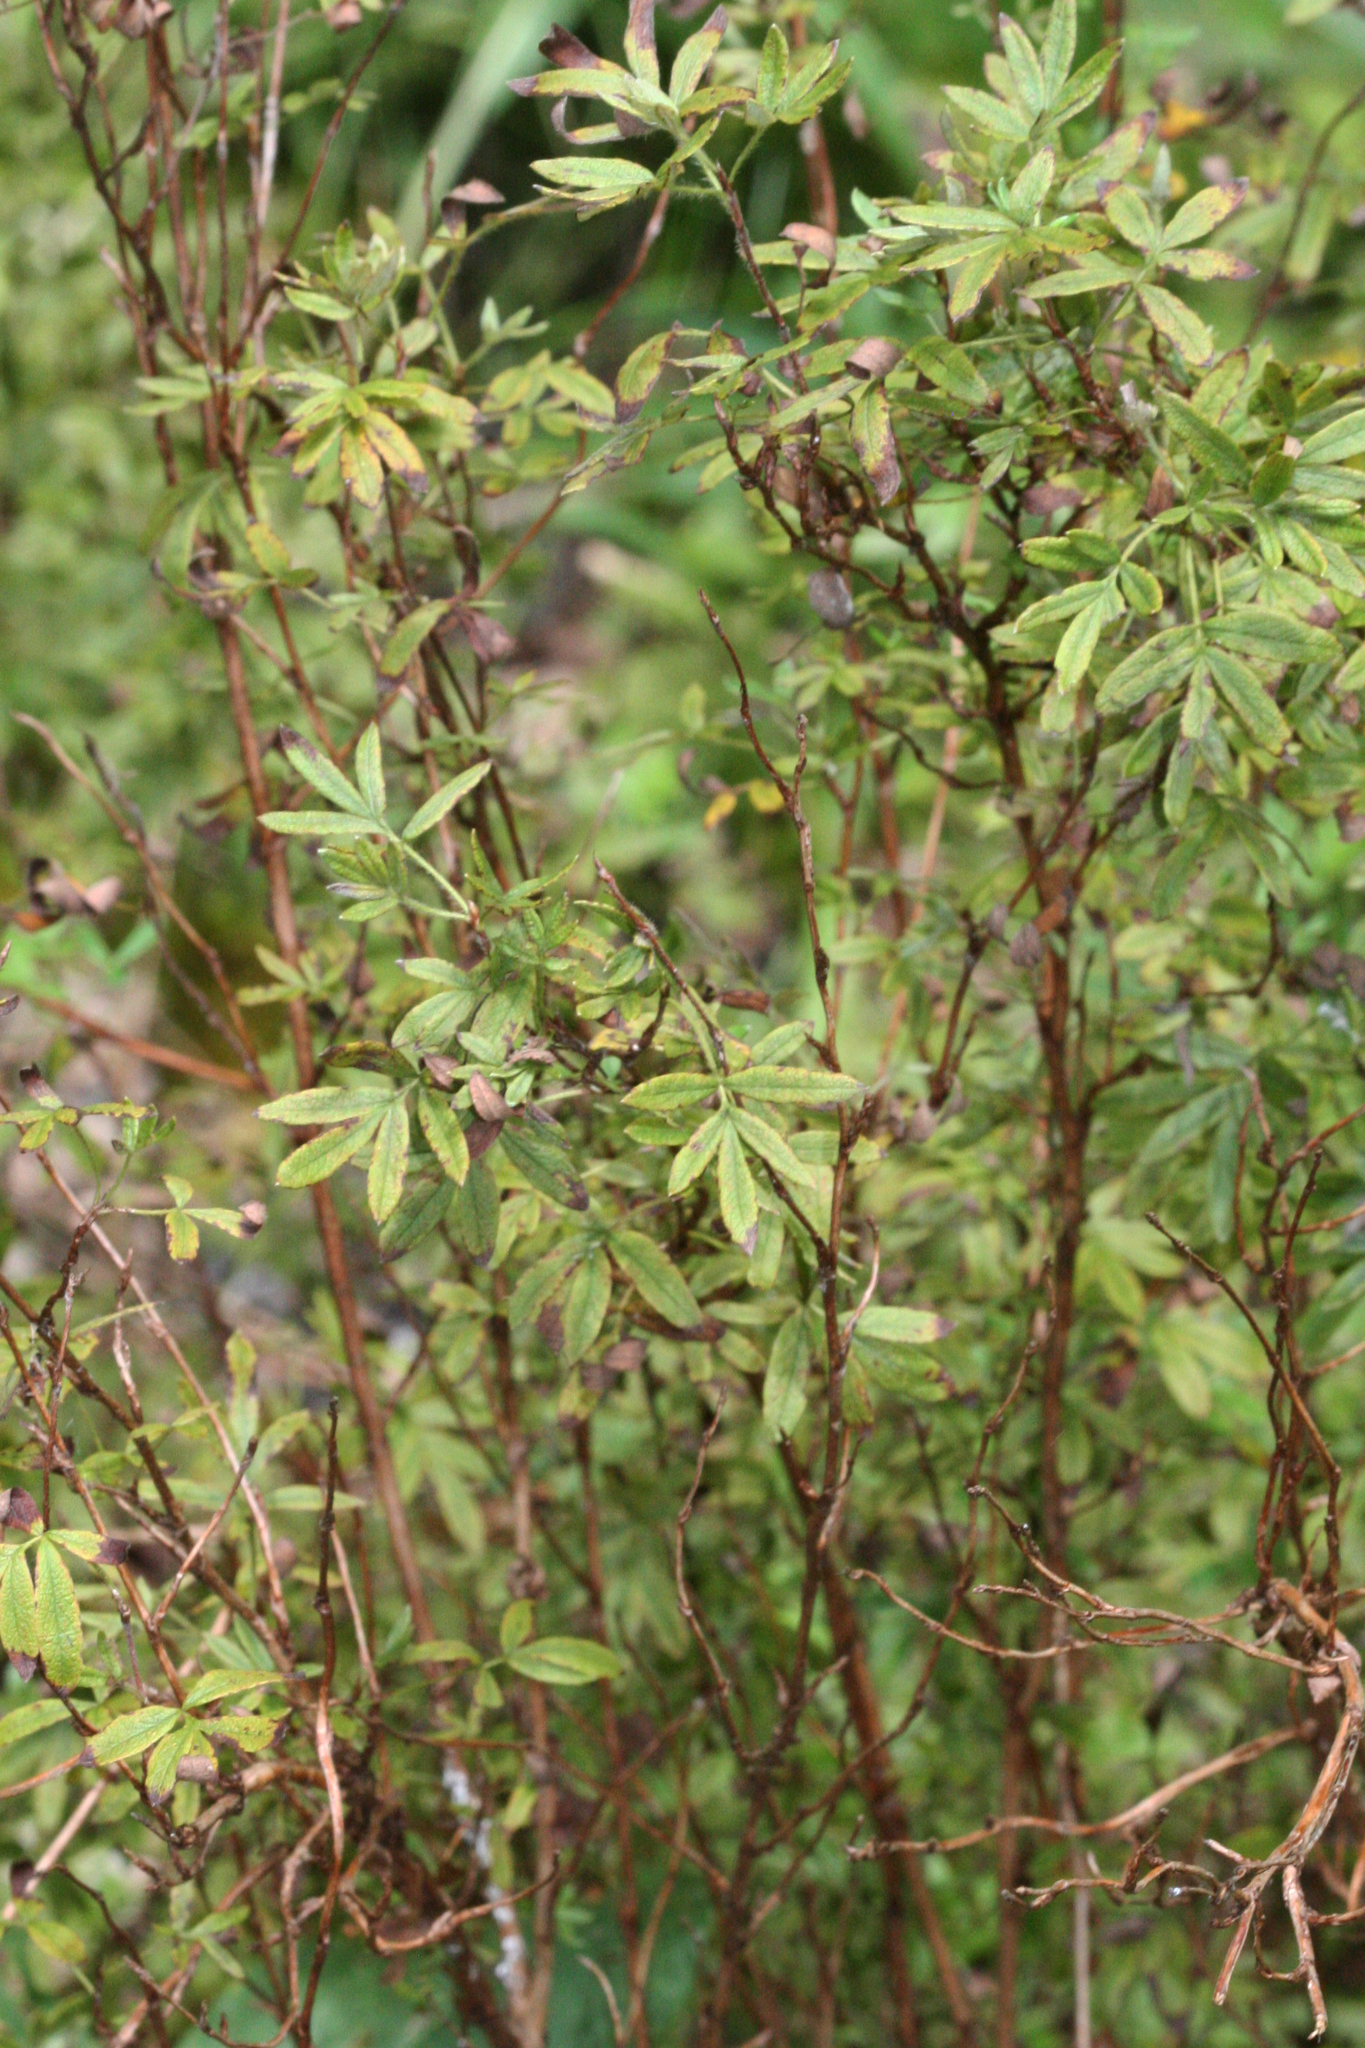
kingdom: Plantae
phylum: Tracheophyta
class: Magnoliopsida
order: Rosales
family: Rosaceae
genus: Dasiphora
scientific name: Dasiphora fruticosa
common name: Shrubby cinquefoil
